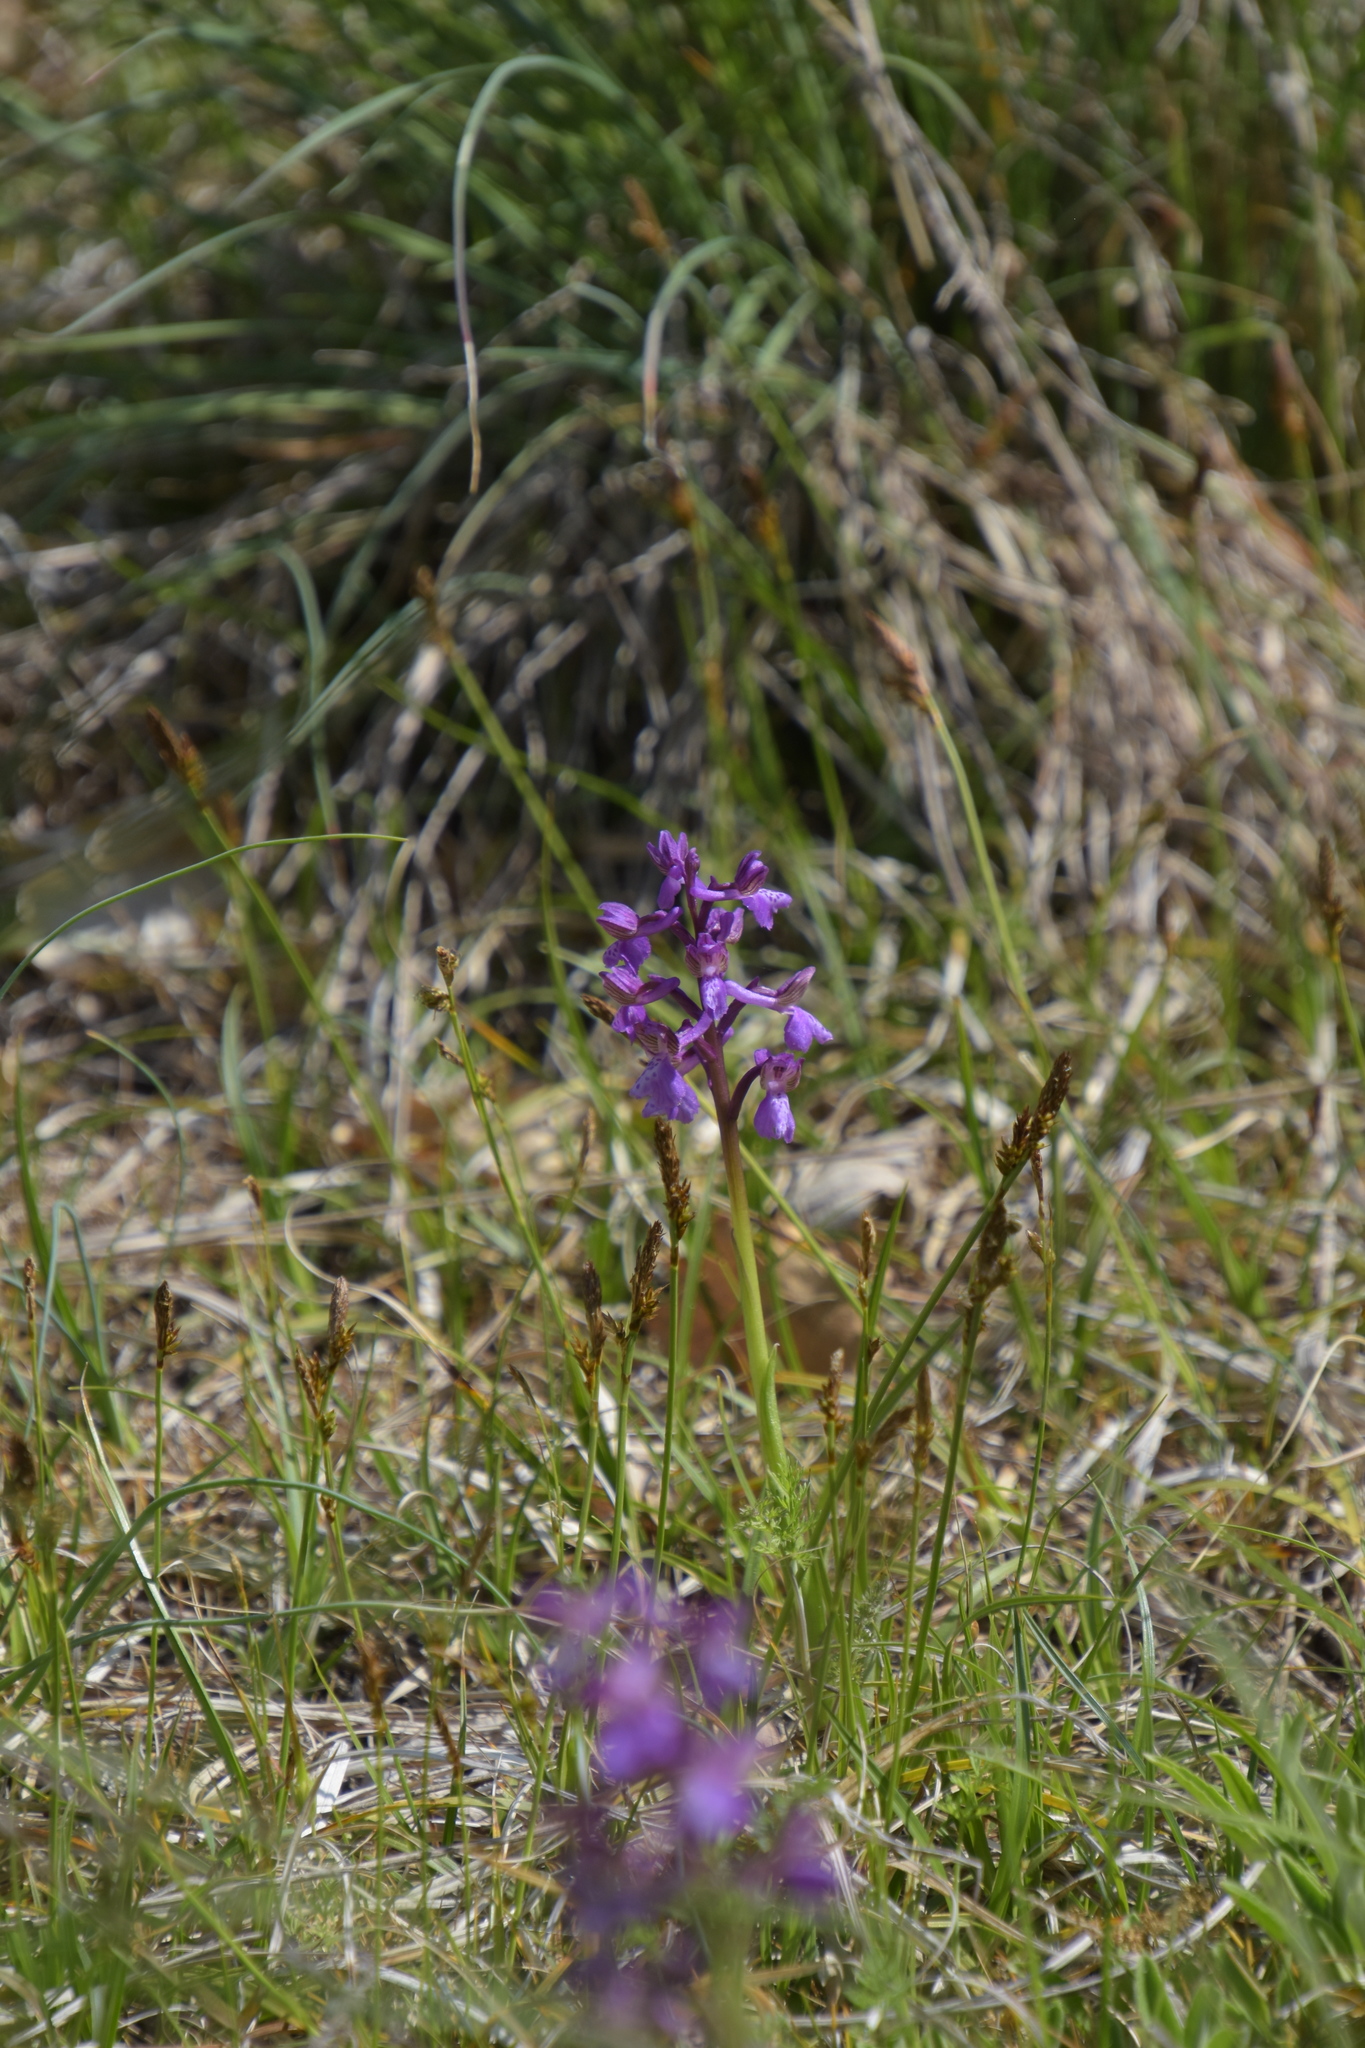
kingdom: Plantae
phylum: Tracheophyta
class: Liliopsida
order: Asparagales
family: Orchidaceae
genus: Anacamptis
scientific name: Anacamptis morio
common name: Green-winged orchid
